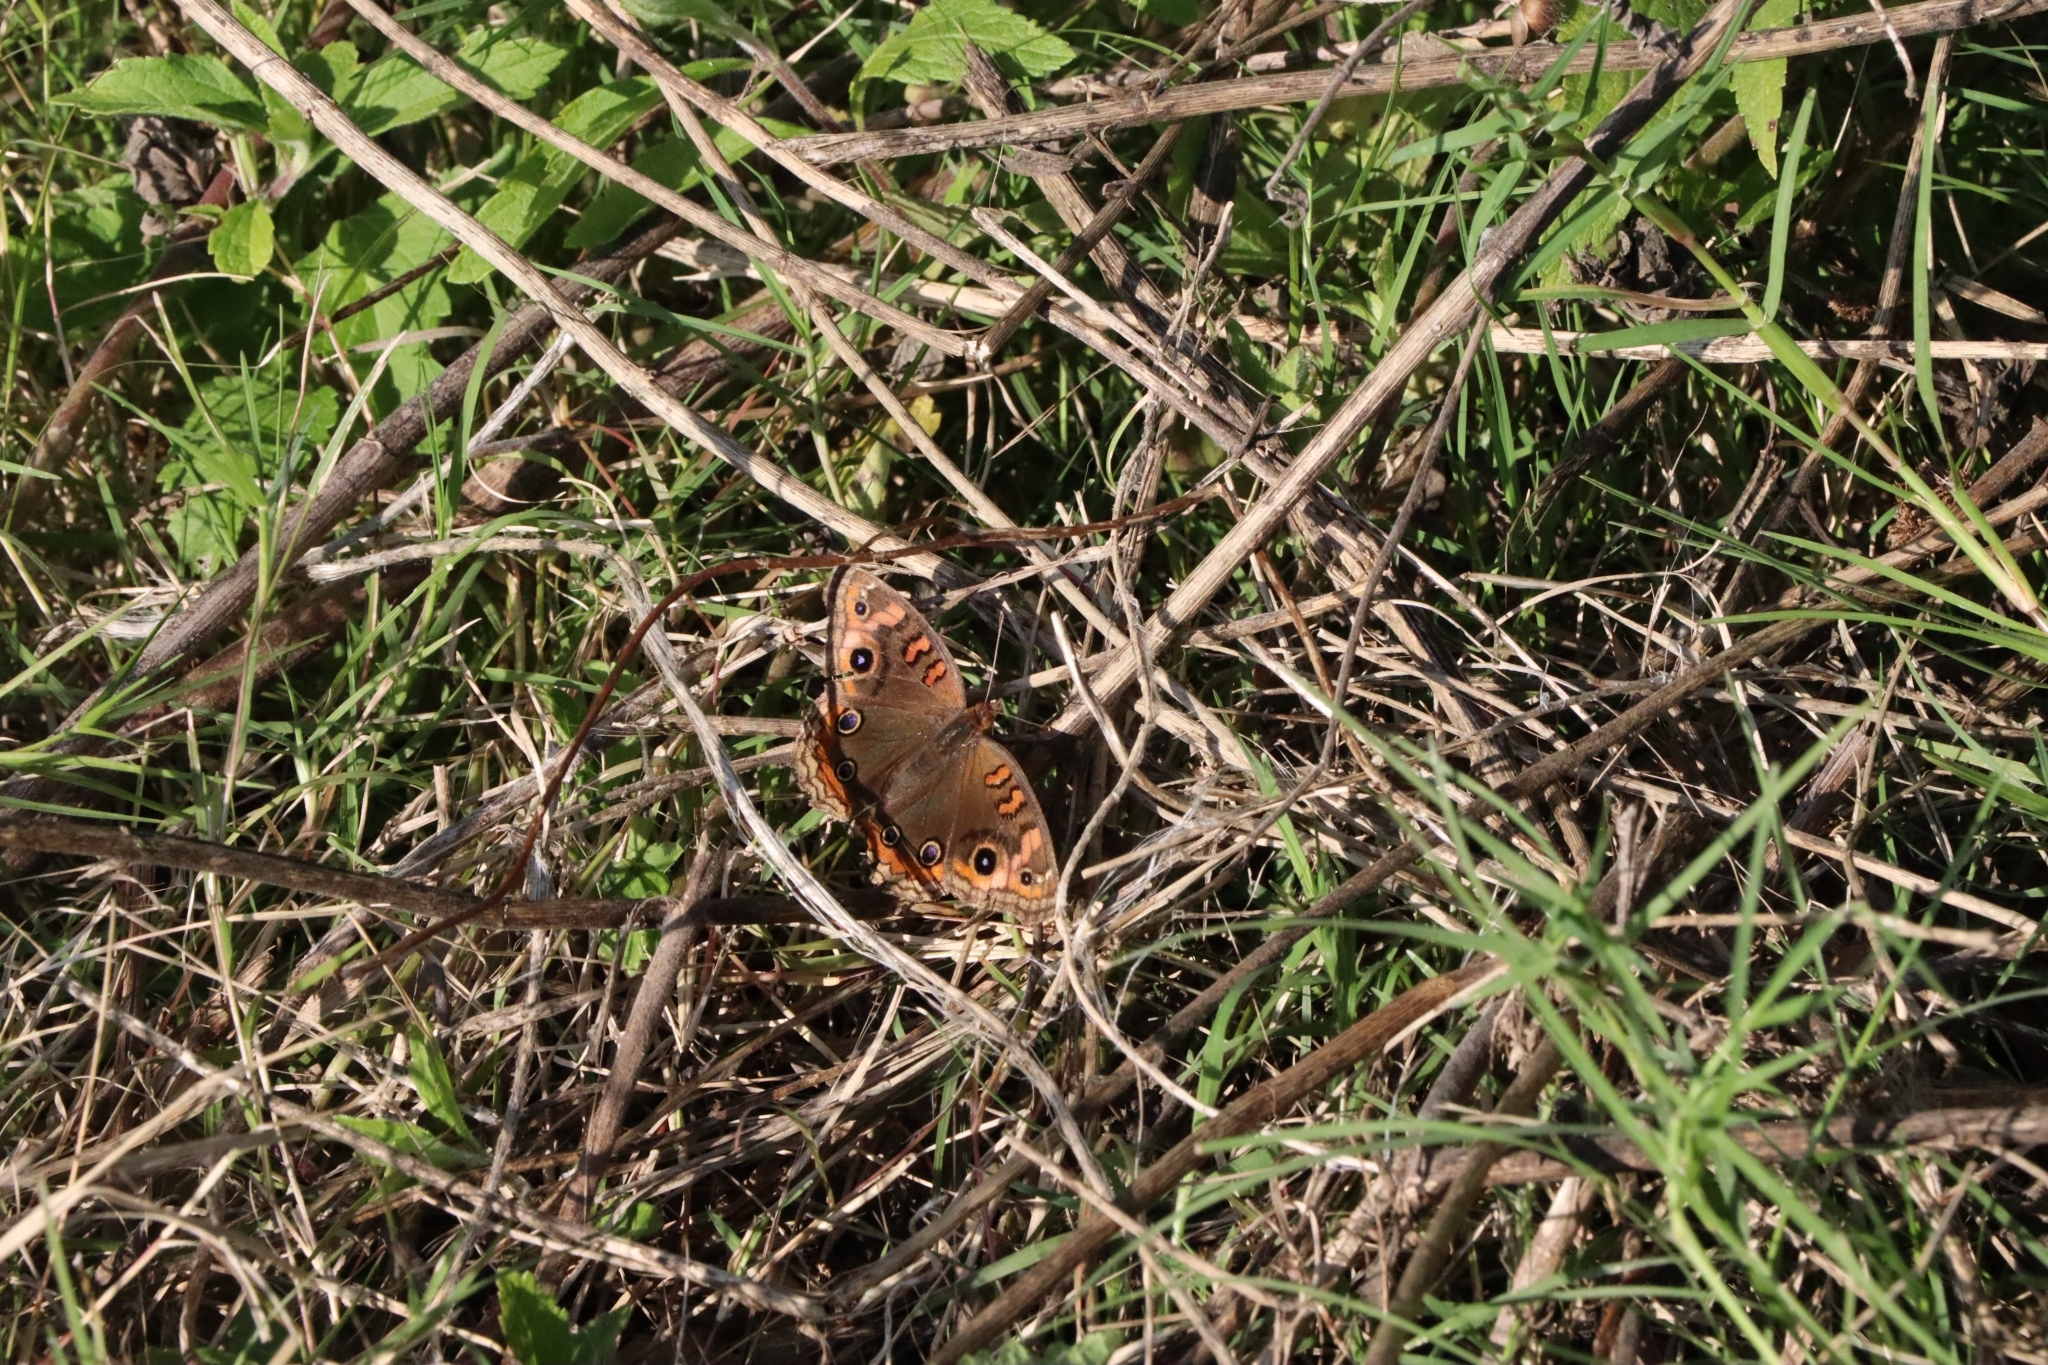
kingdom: Animalia
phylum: Arthropoda
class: Insecta
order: Lepidoptera
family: Nymphalidae
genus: Junonia
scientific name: Junonia lavinia
